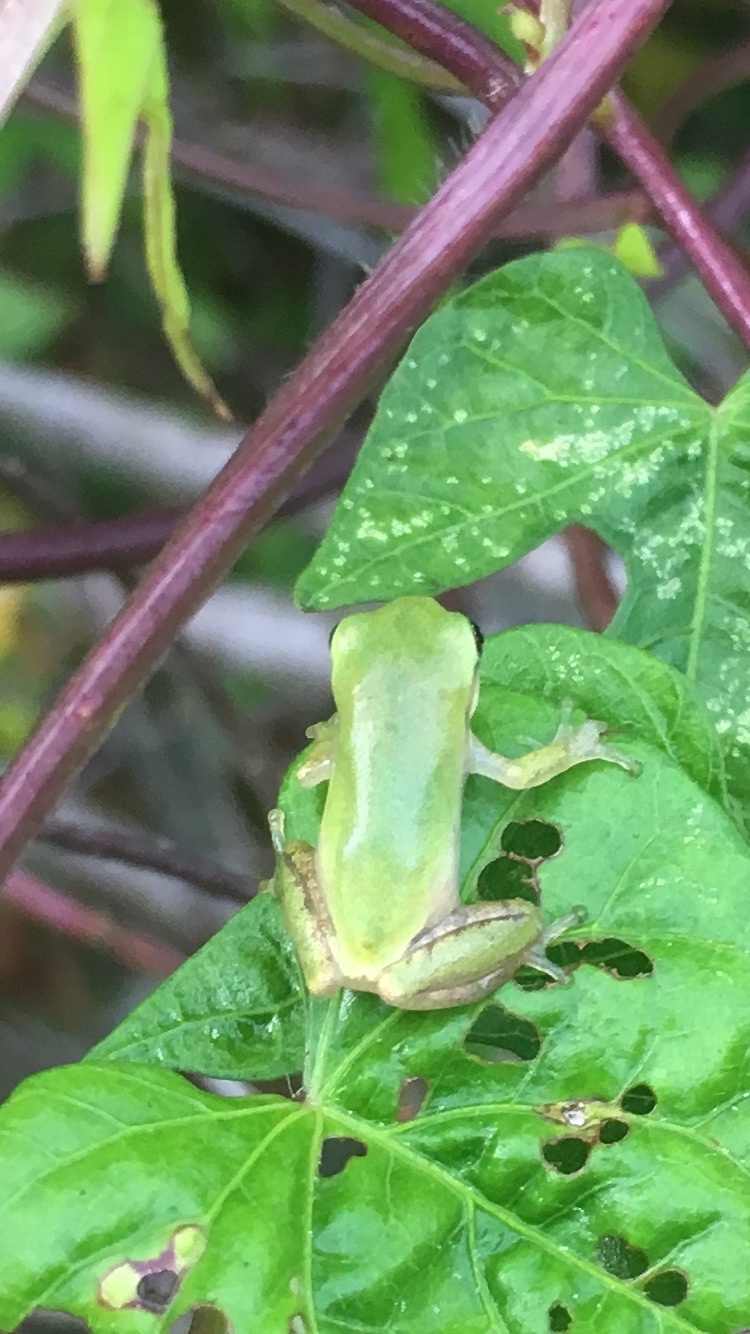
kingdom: Animalia
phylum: Chordata
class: Amphibia
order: Anura
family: Hylidae
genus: Dryophytes
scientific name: Dryophytes squirellus
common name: Squirrel treefrog
